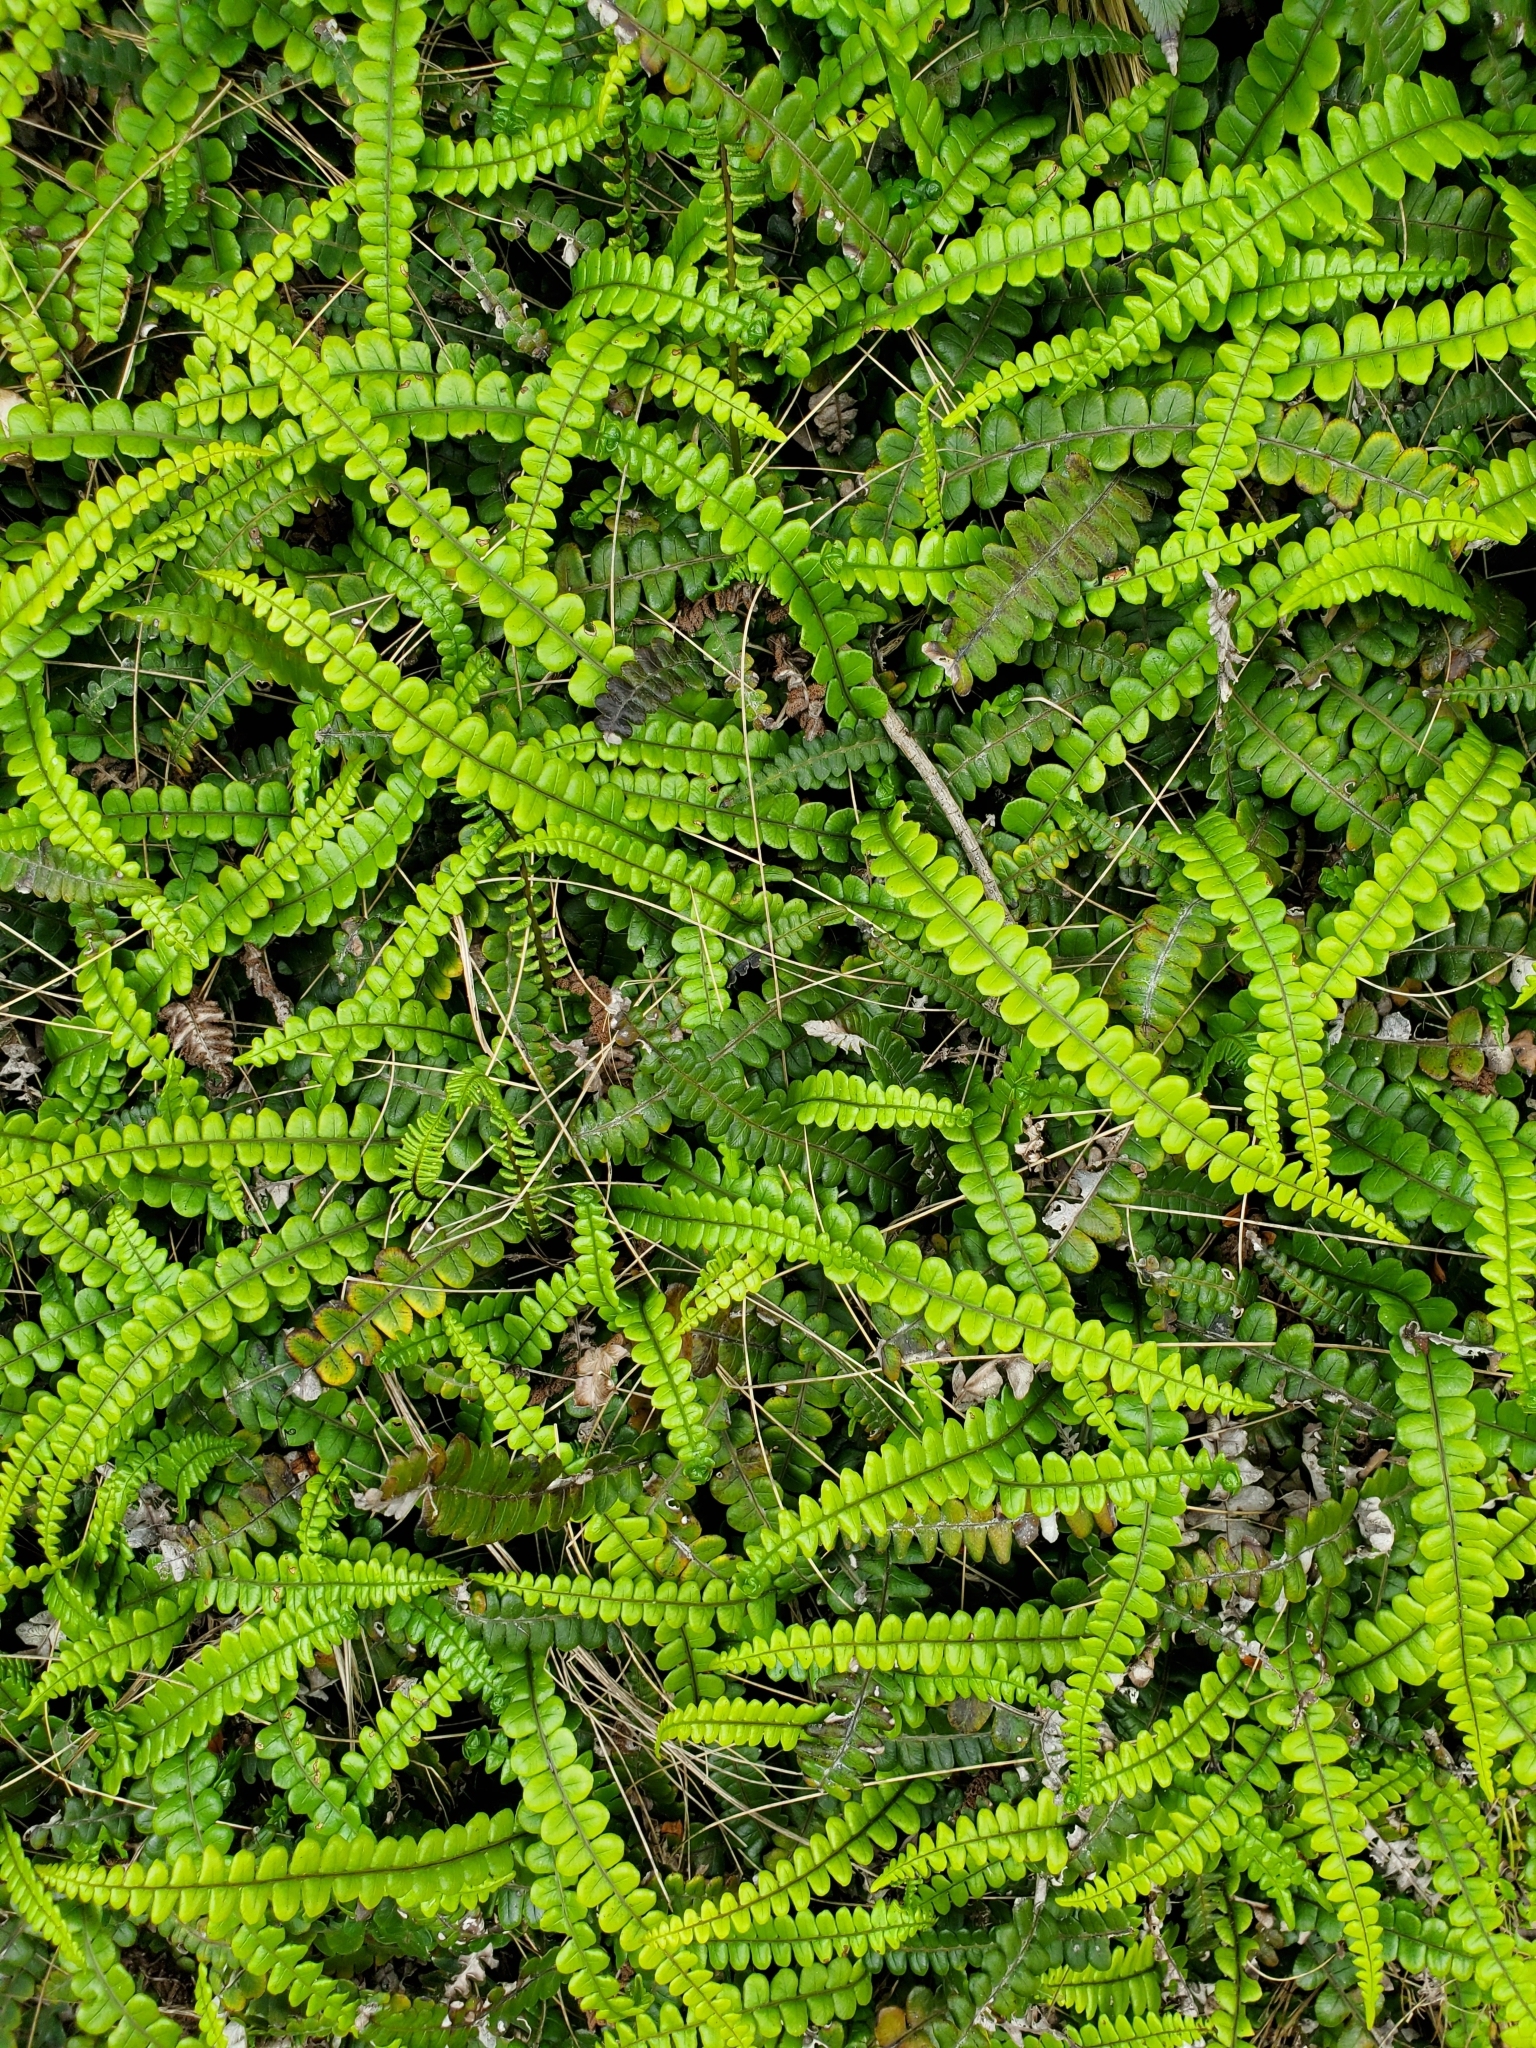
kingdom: Plantae
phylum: Tracheophyta
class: Polypodiopsida
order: Polypodiales
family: Blechnaceae
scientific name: Blechnaceae
